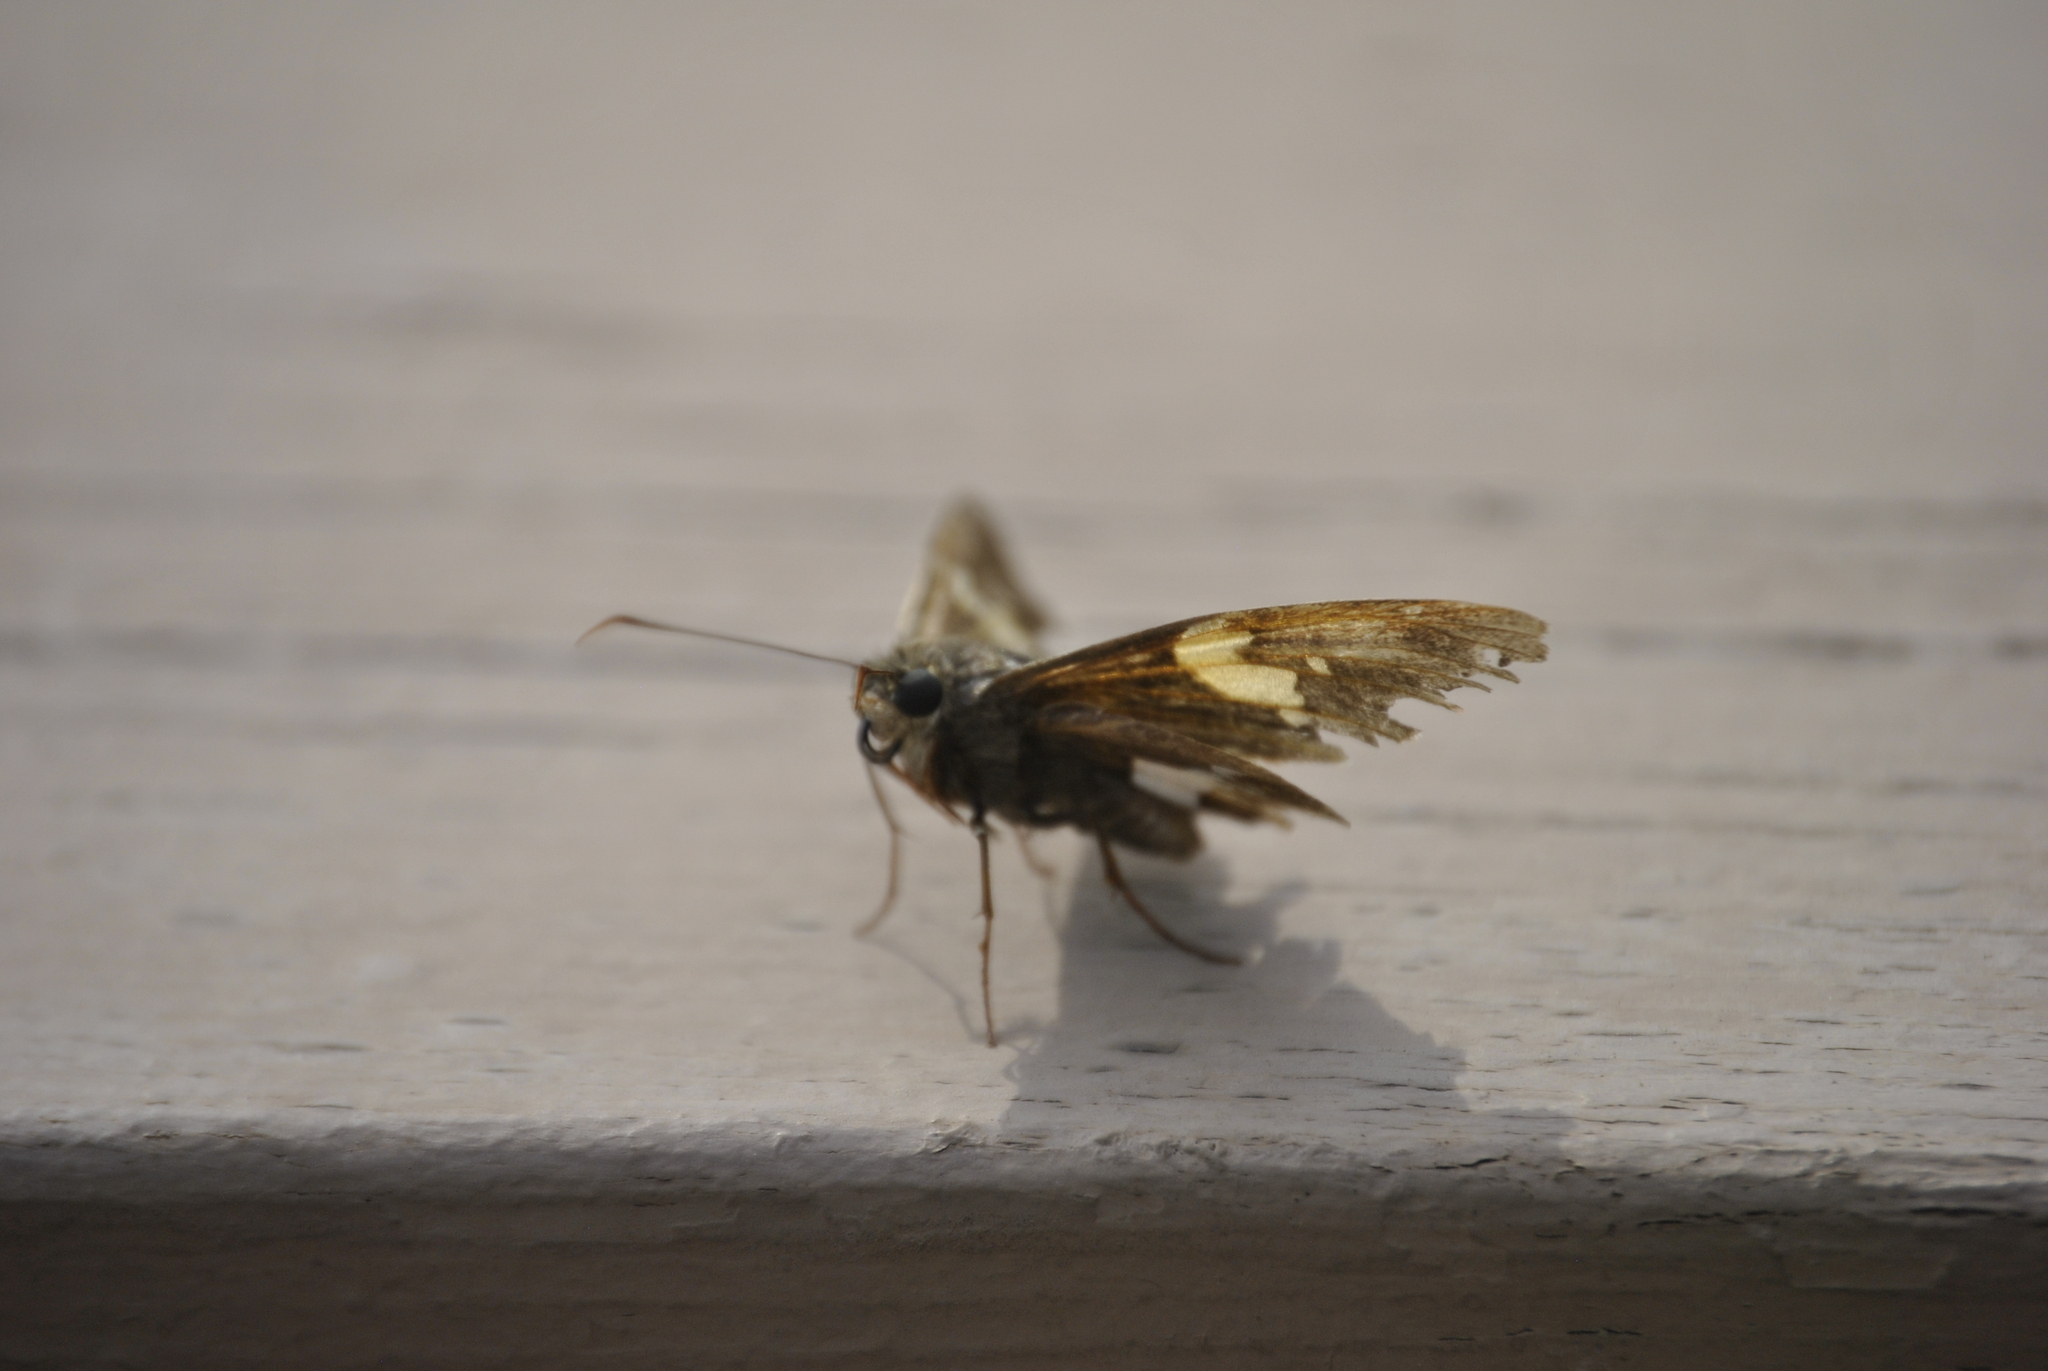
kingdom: Animalia
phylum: Arthropoda
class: Insecta
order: Lepidoptera
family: Hesperiidae
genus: Epargyreus
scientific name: Epargyreus clarus
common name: Silver-spotted skipper
